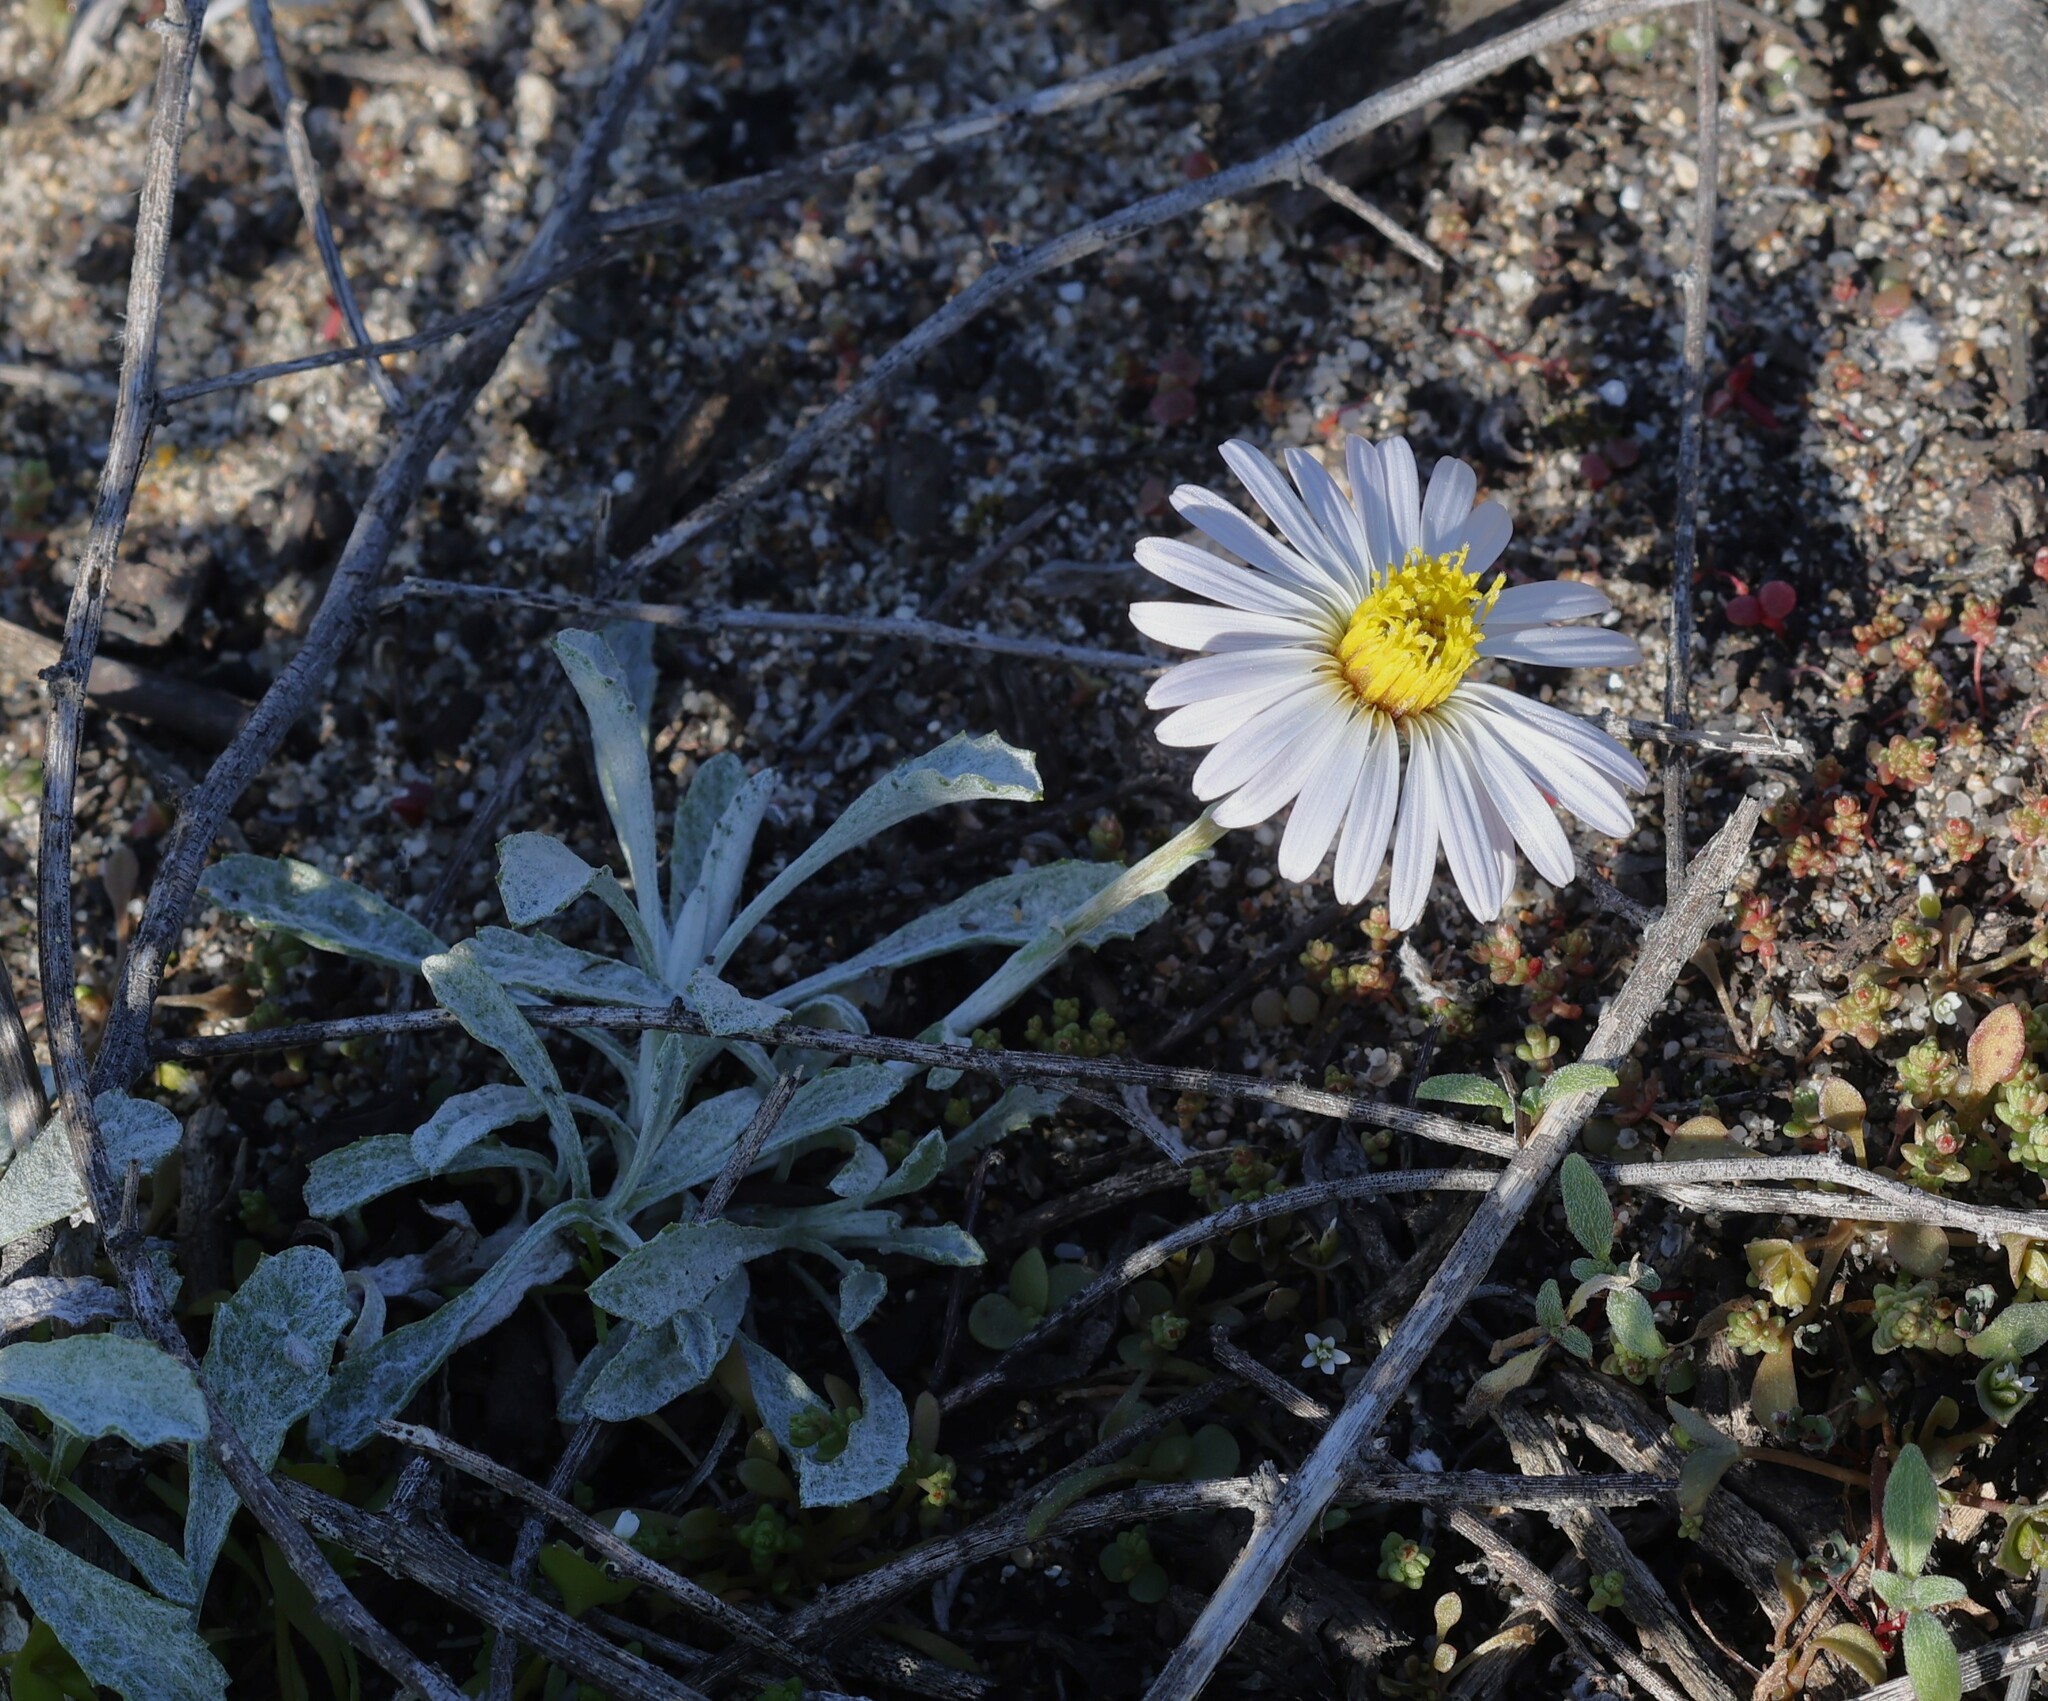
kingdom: Plantae
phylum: Tracheophyta
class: Magnoliopsida
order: Asterales
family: Asteraceae
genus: Corethrogyne
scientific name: Corethrogyne leucophylla
